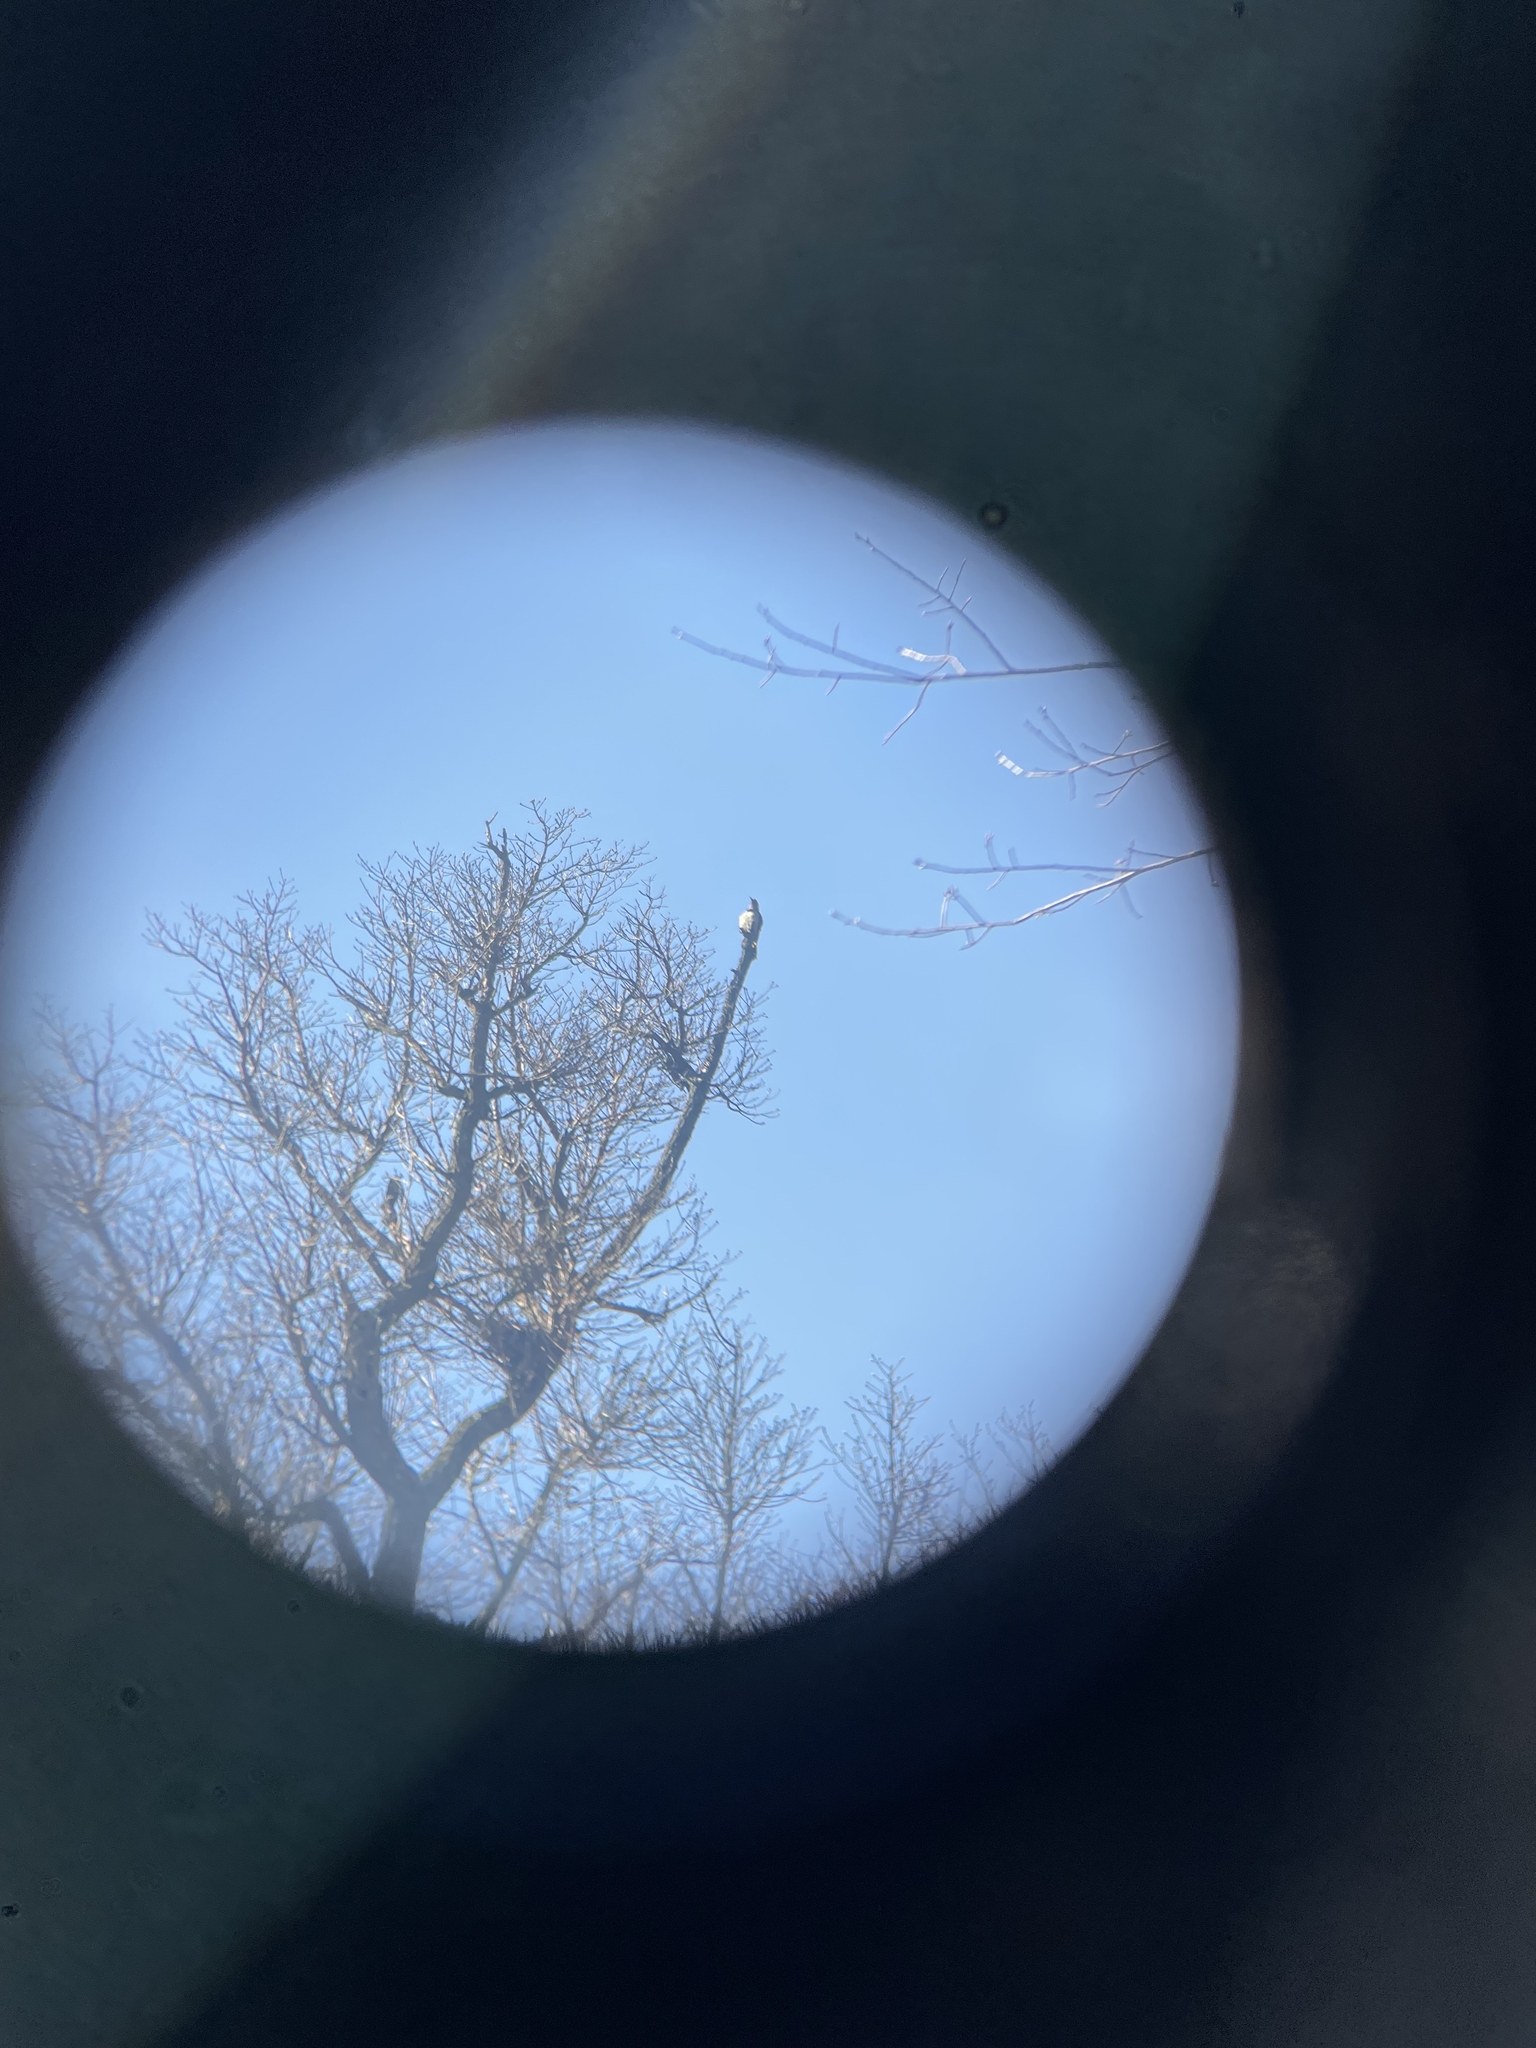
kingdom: Animalia
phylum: Chordata
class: Aves
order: Piciformes
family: Picidae
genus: Colaptes
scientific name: Colaptes auratus
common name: Northern flicker
